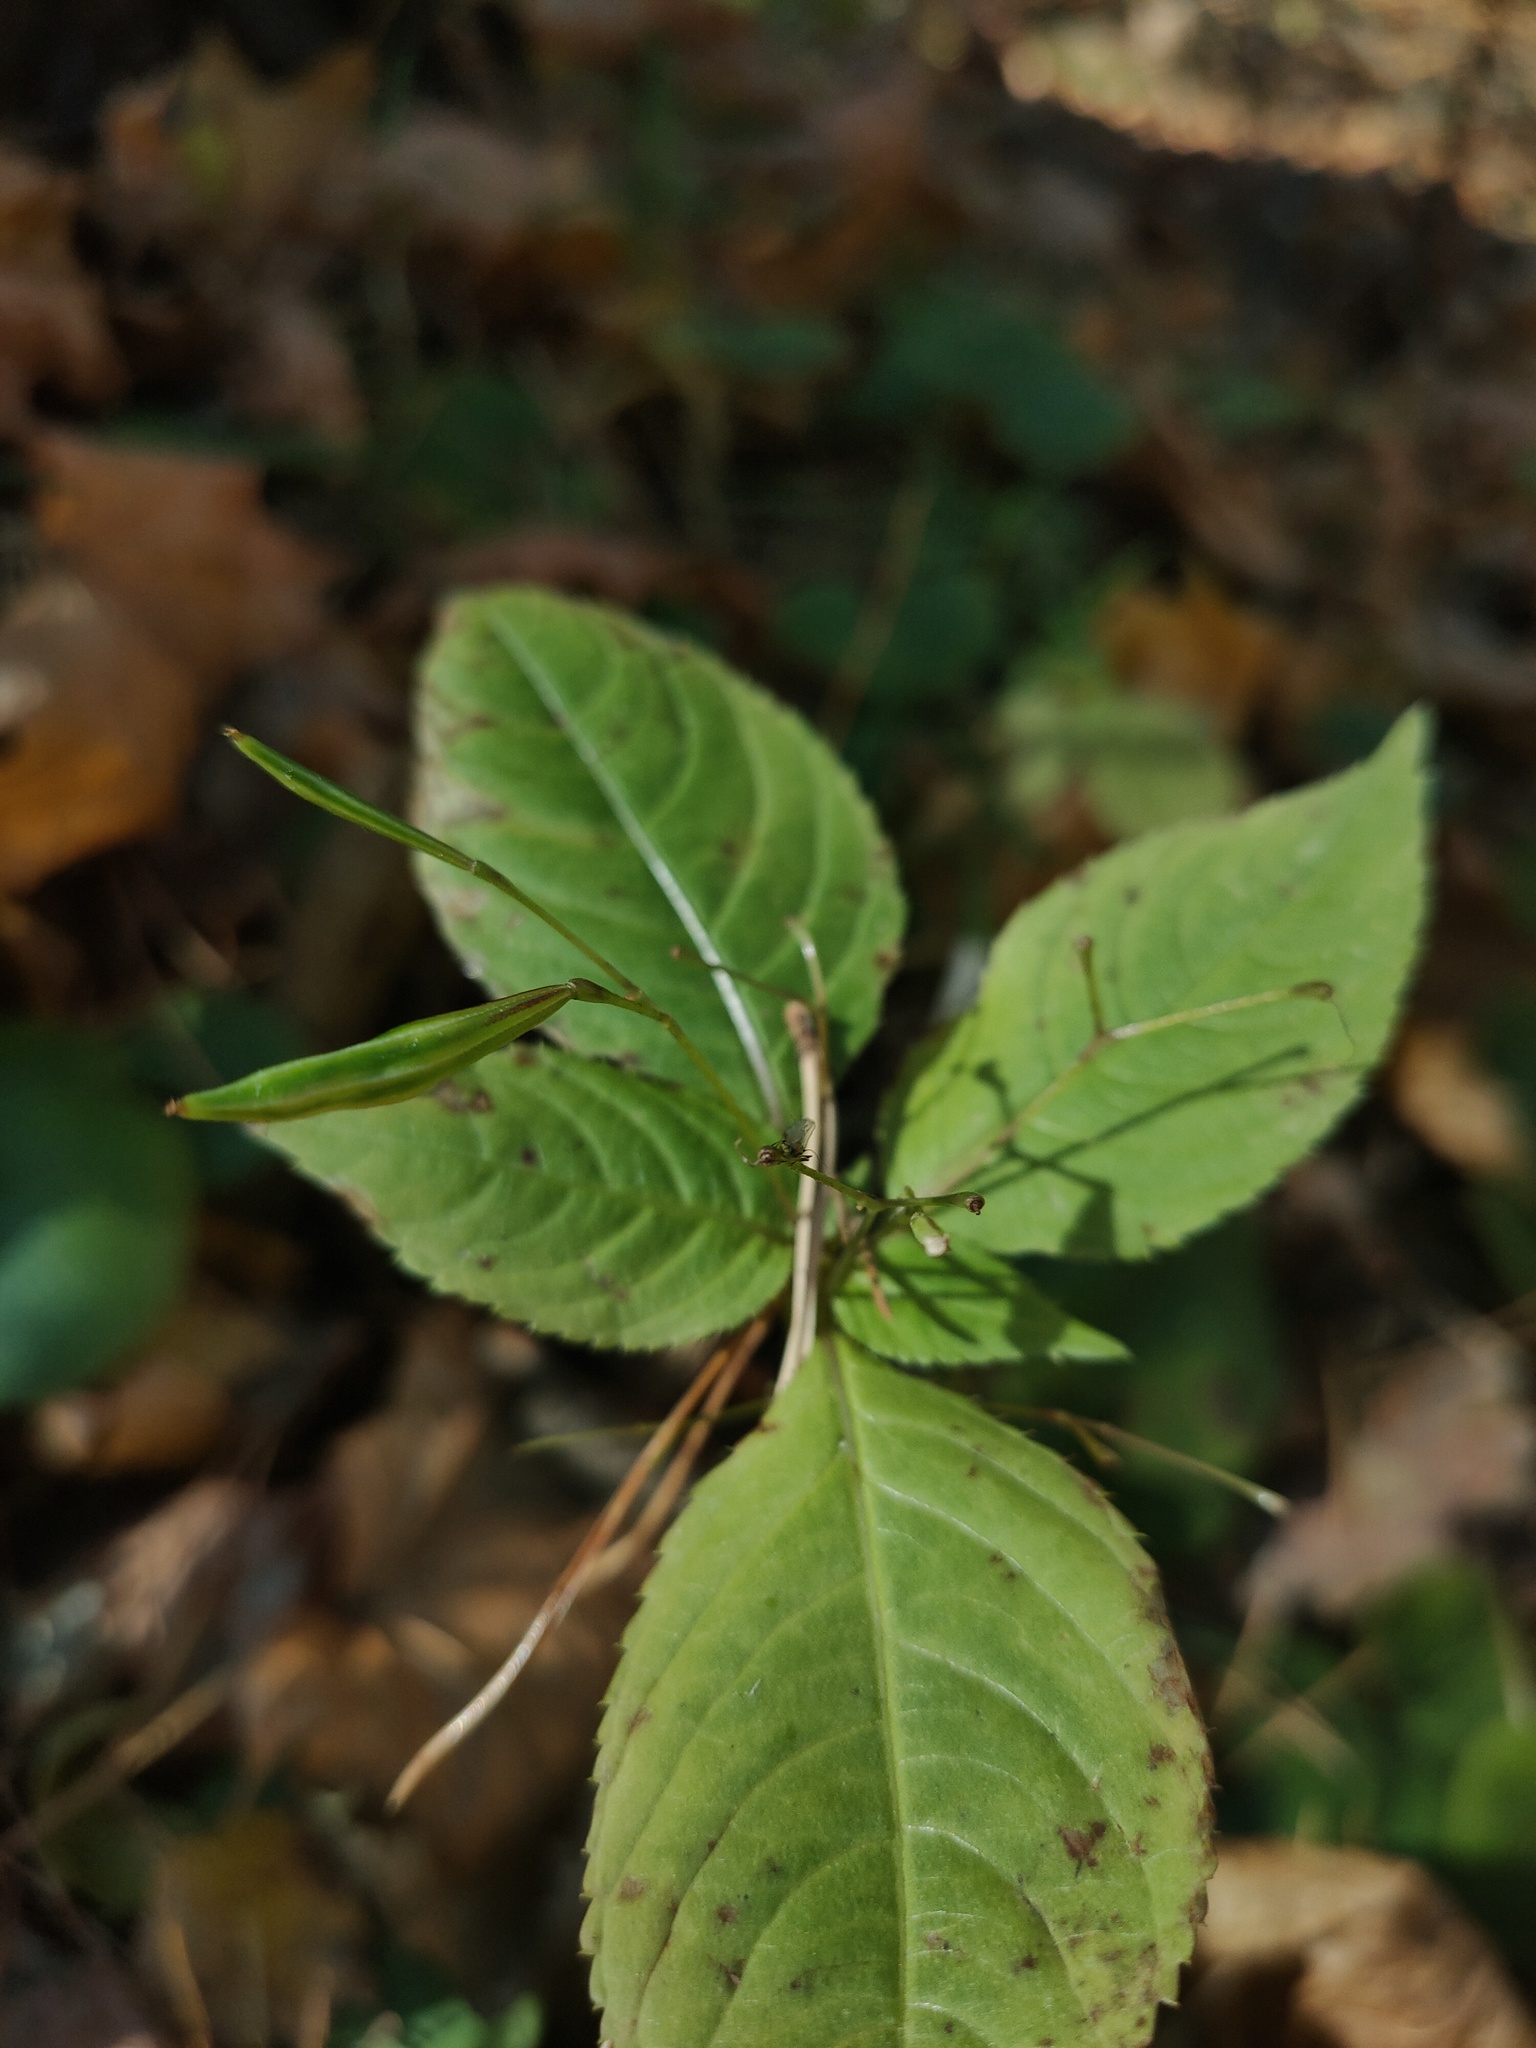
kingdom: Plantae
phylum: Tracheophyta
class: Magnoliopsida
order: Ericales
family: Balsaminaceae
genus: Impatiens
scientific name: Impatiens parviflora
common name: Small balsam
